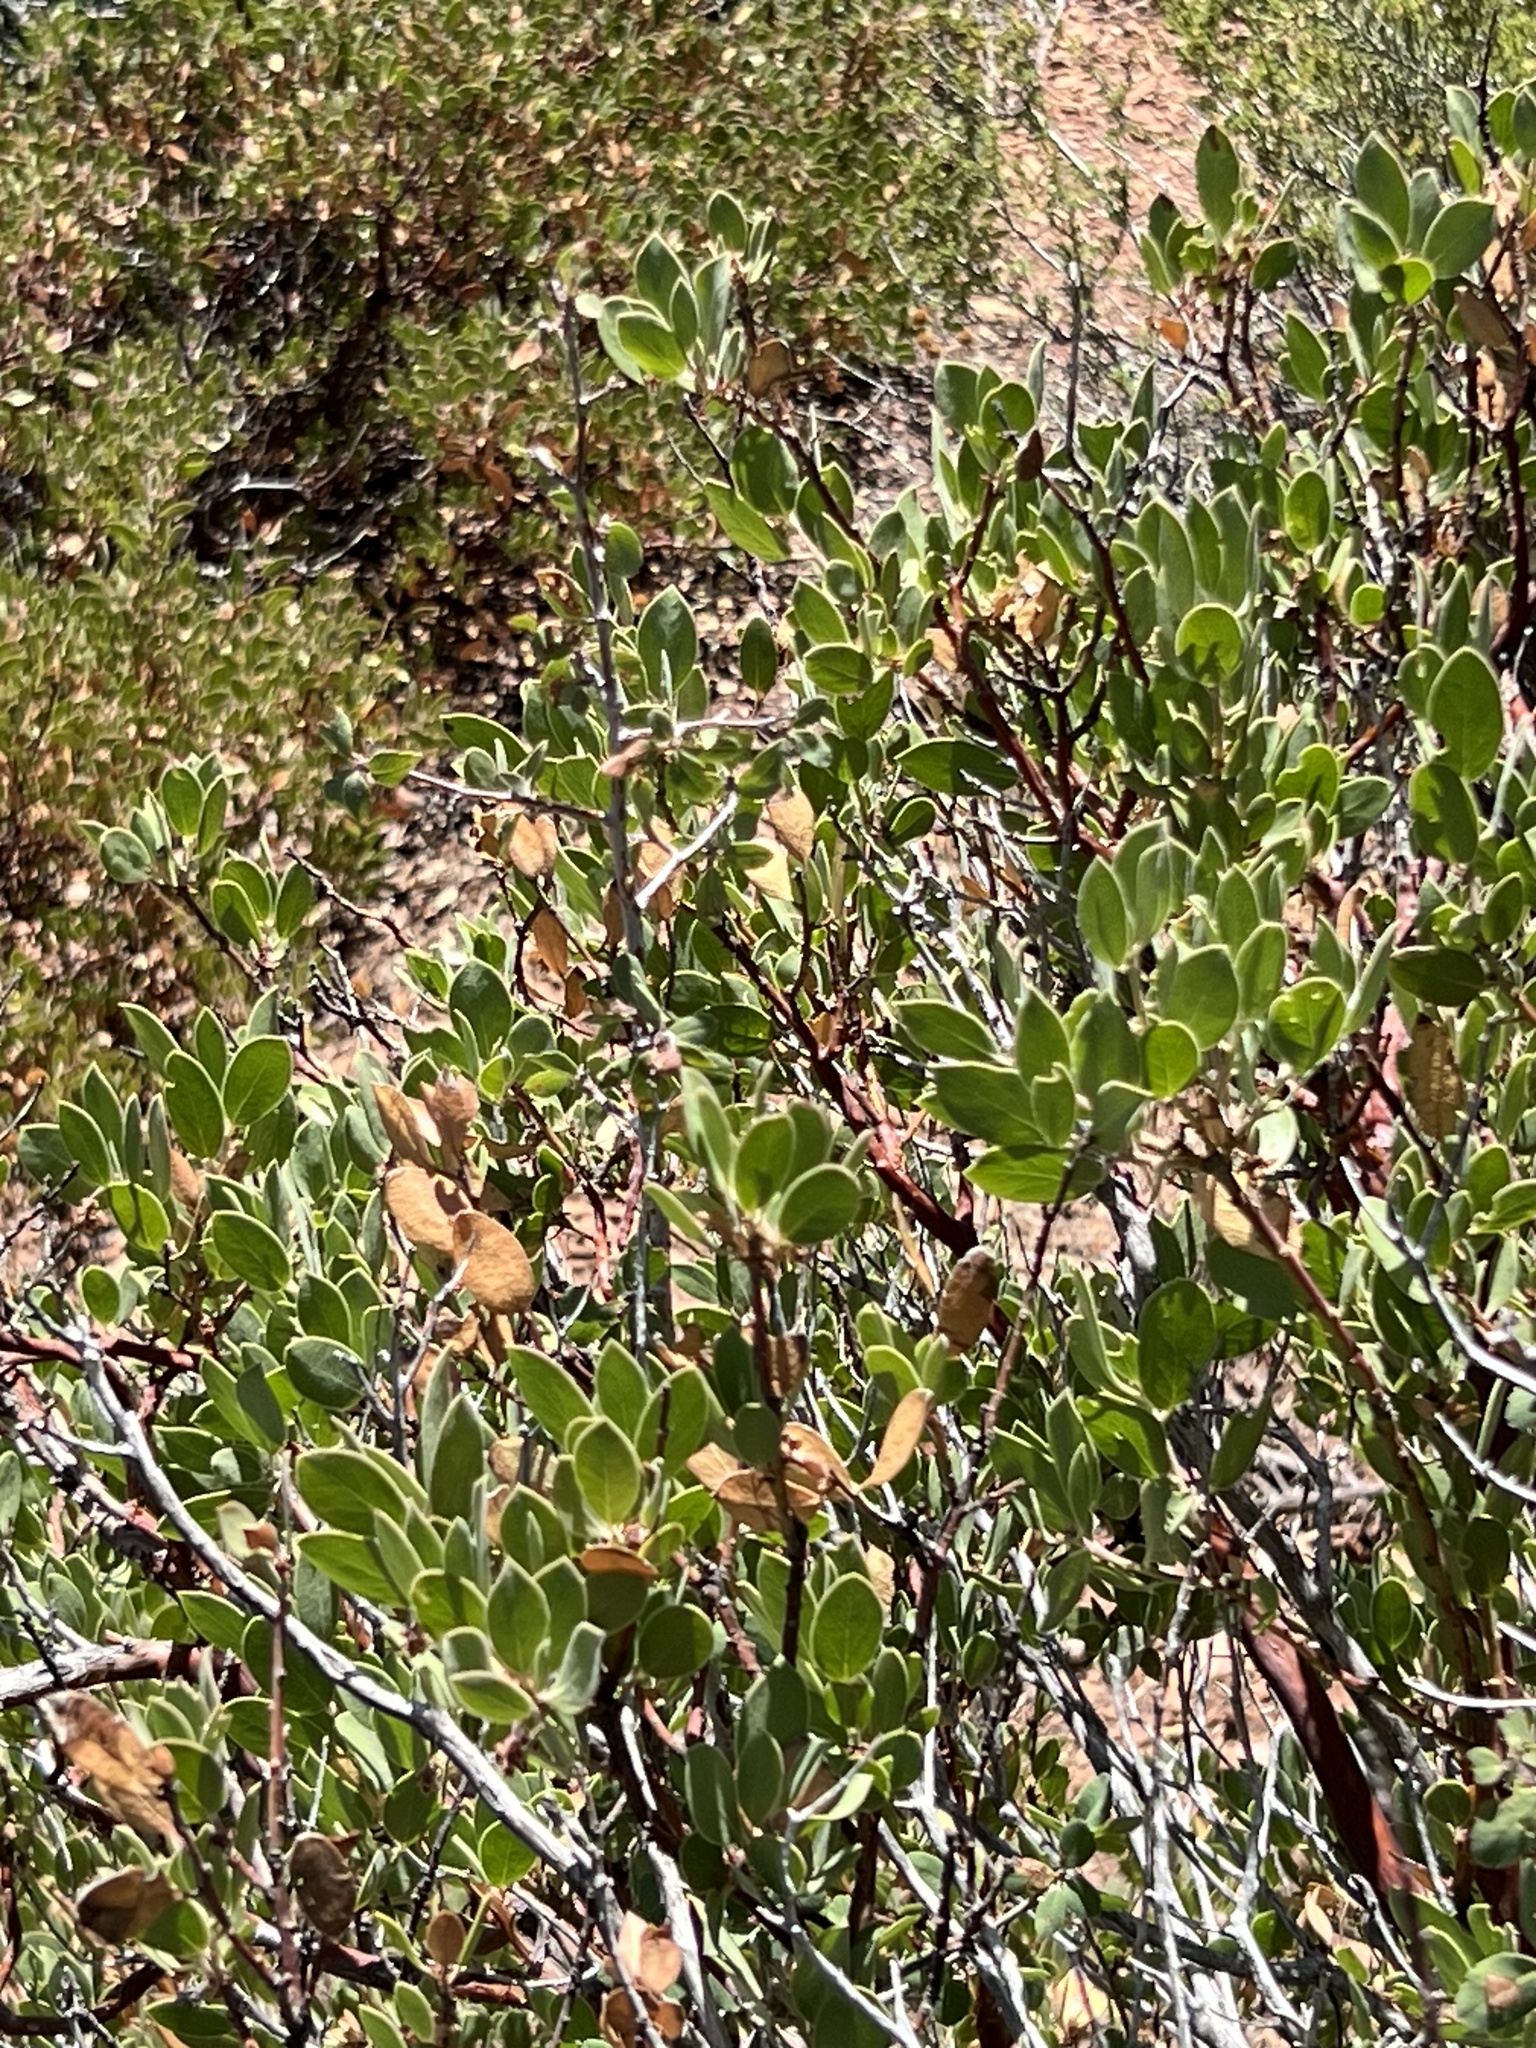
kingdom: Plantae
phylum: Tracheophyta
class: Magnoliopsida
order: Ericales
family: Ericaceae
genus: Arctostaphylos
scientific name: Arctostaphylos pungens
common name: Mexican manzanita
